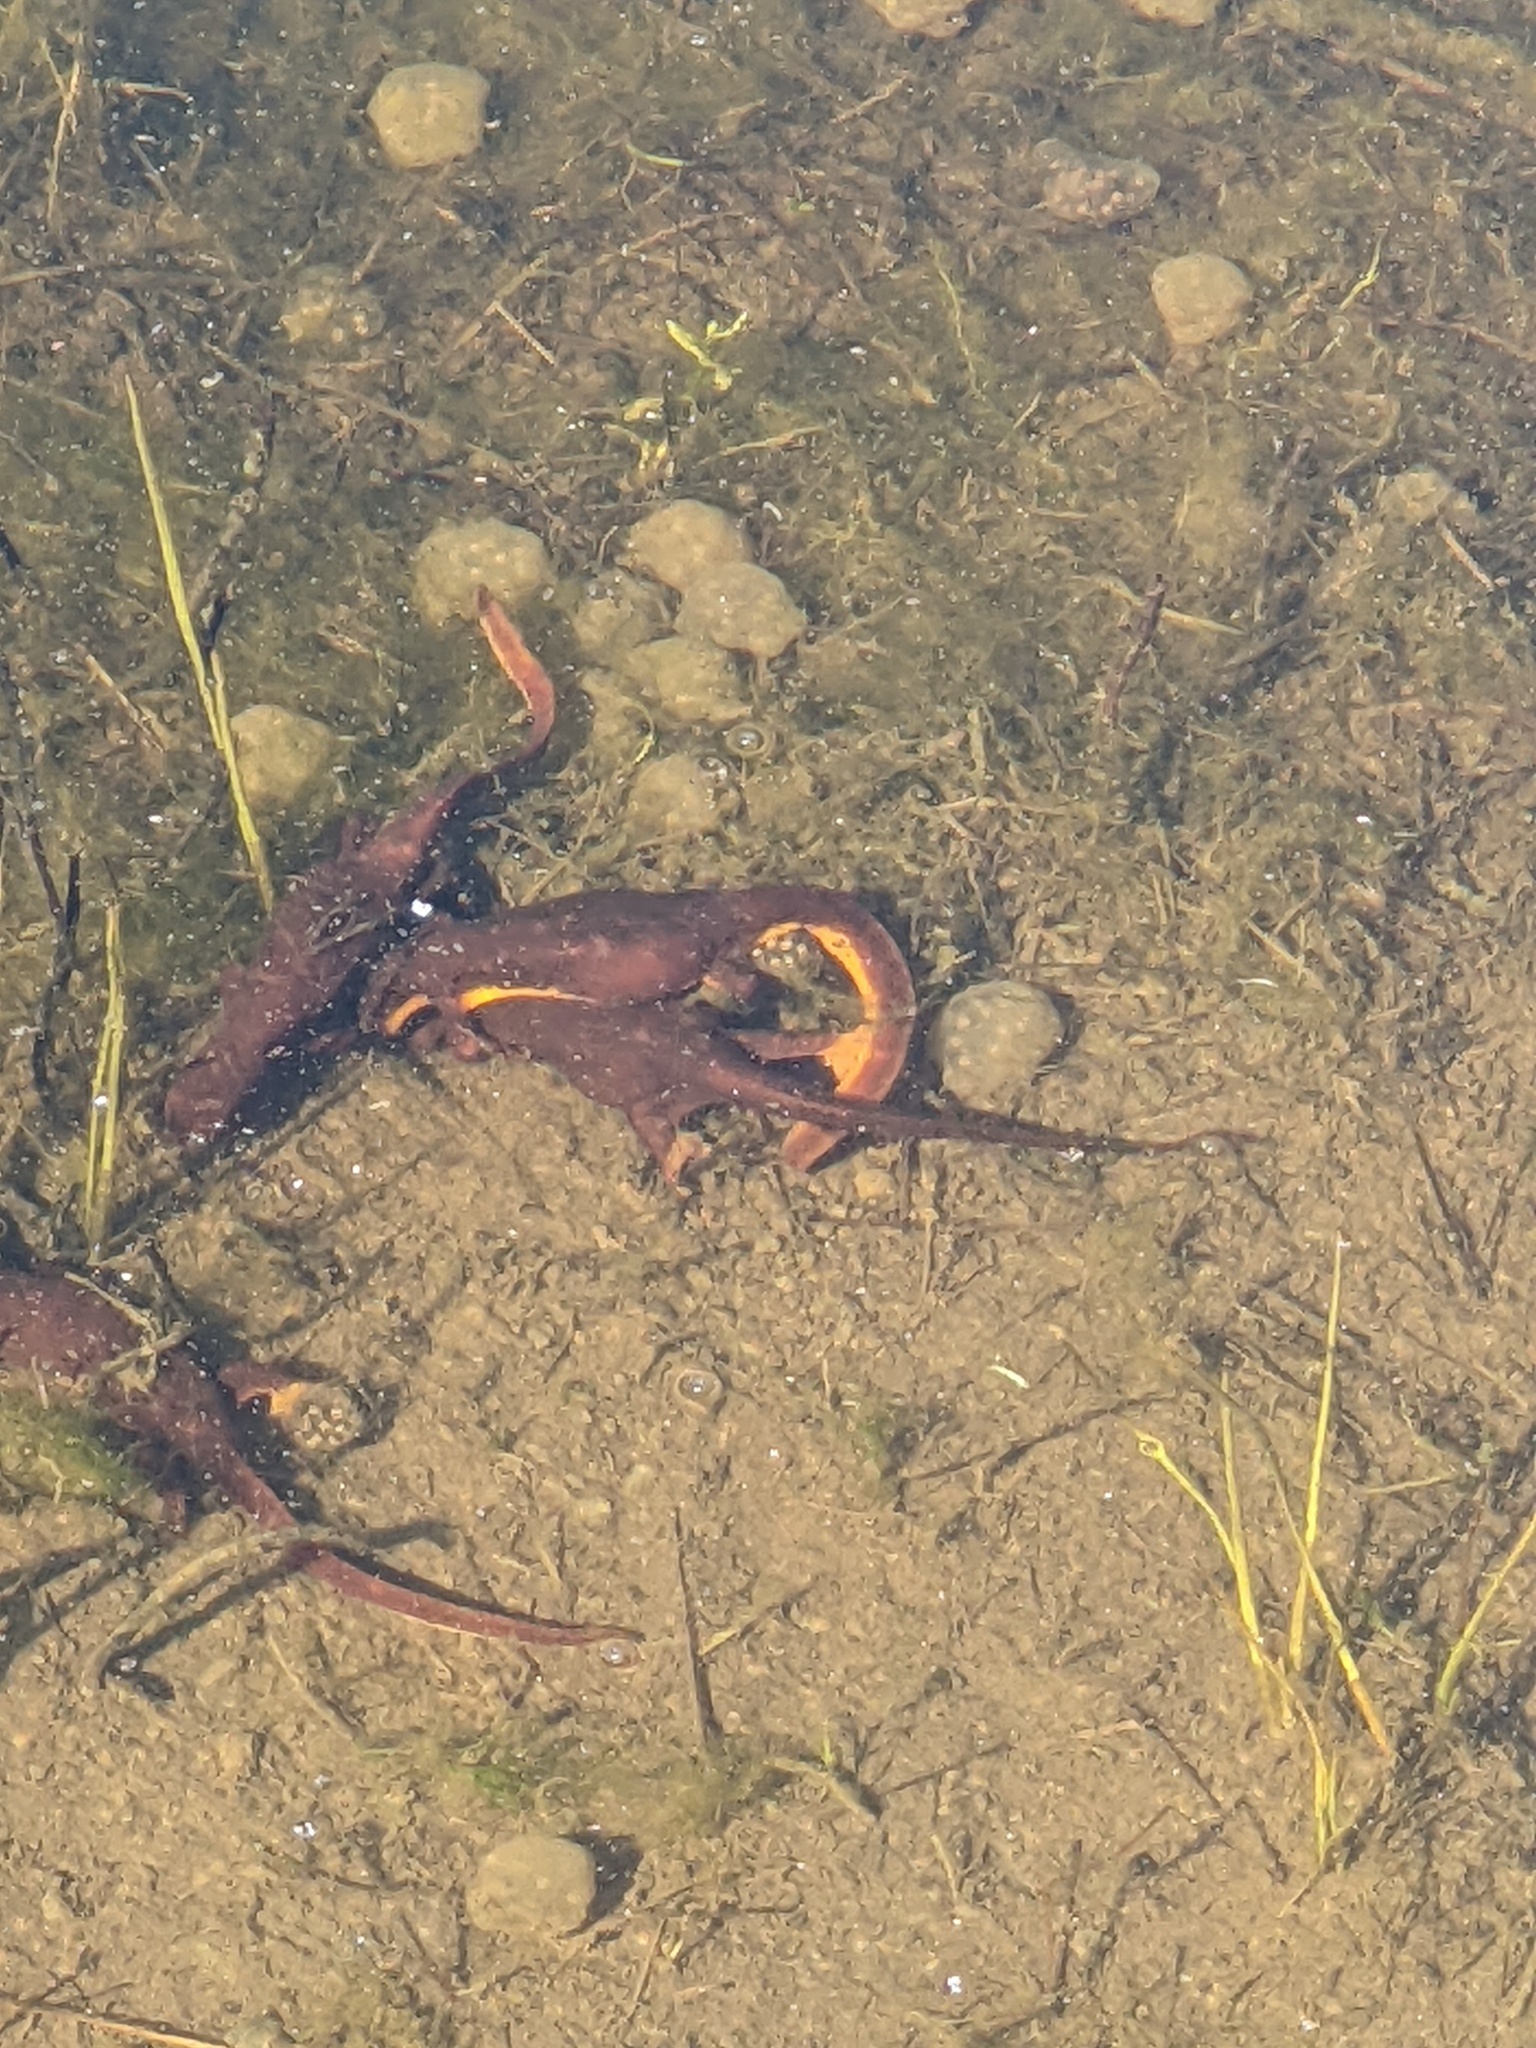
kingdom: Animalia
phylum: Chordata
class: Amphibia
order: Caudata
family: Salamandridae
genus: Taricha
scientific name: Taricha torosa
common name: California newt
